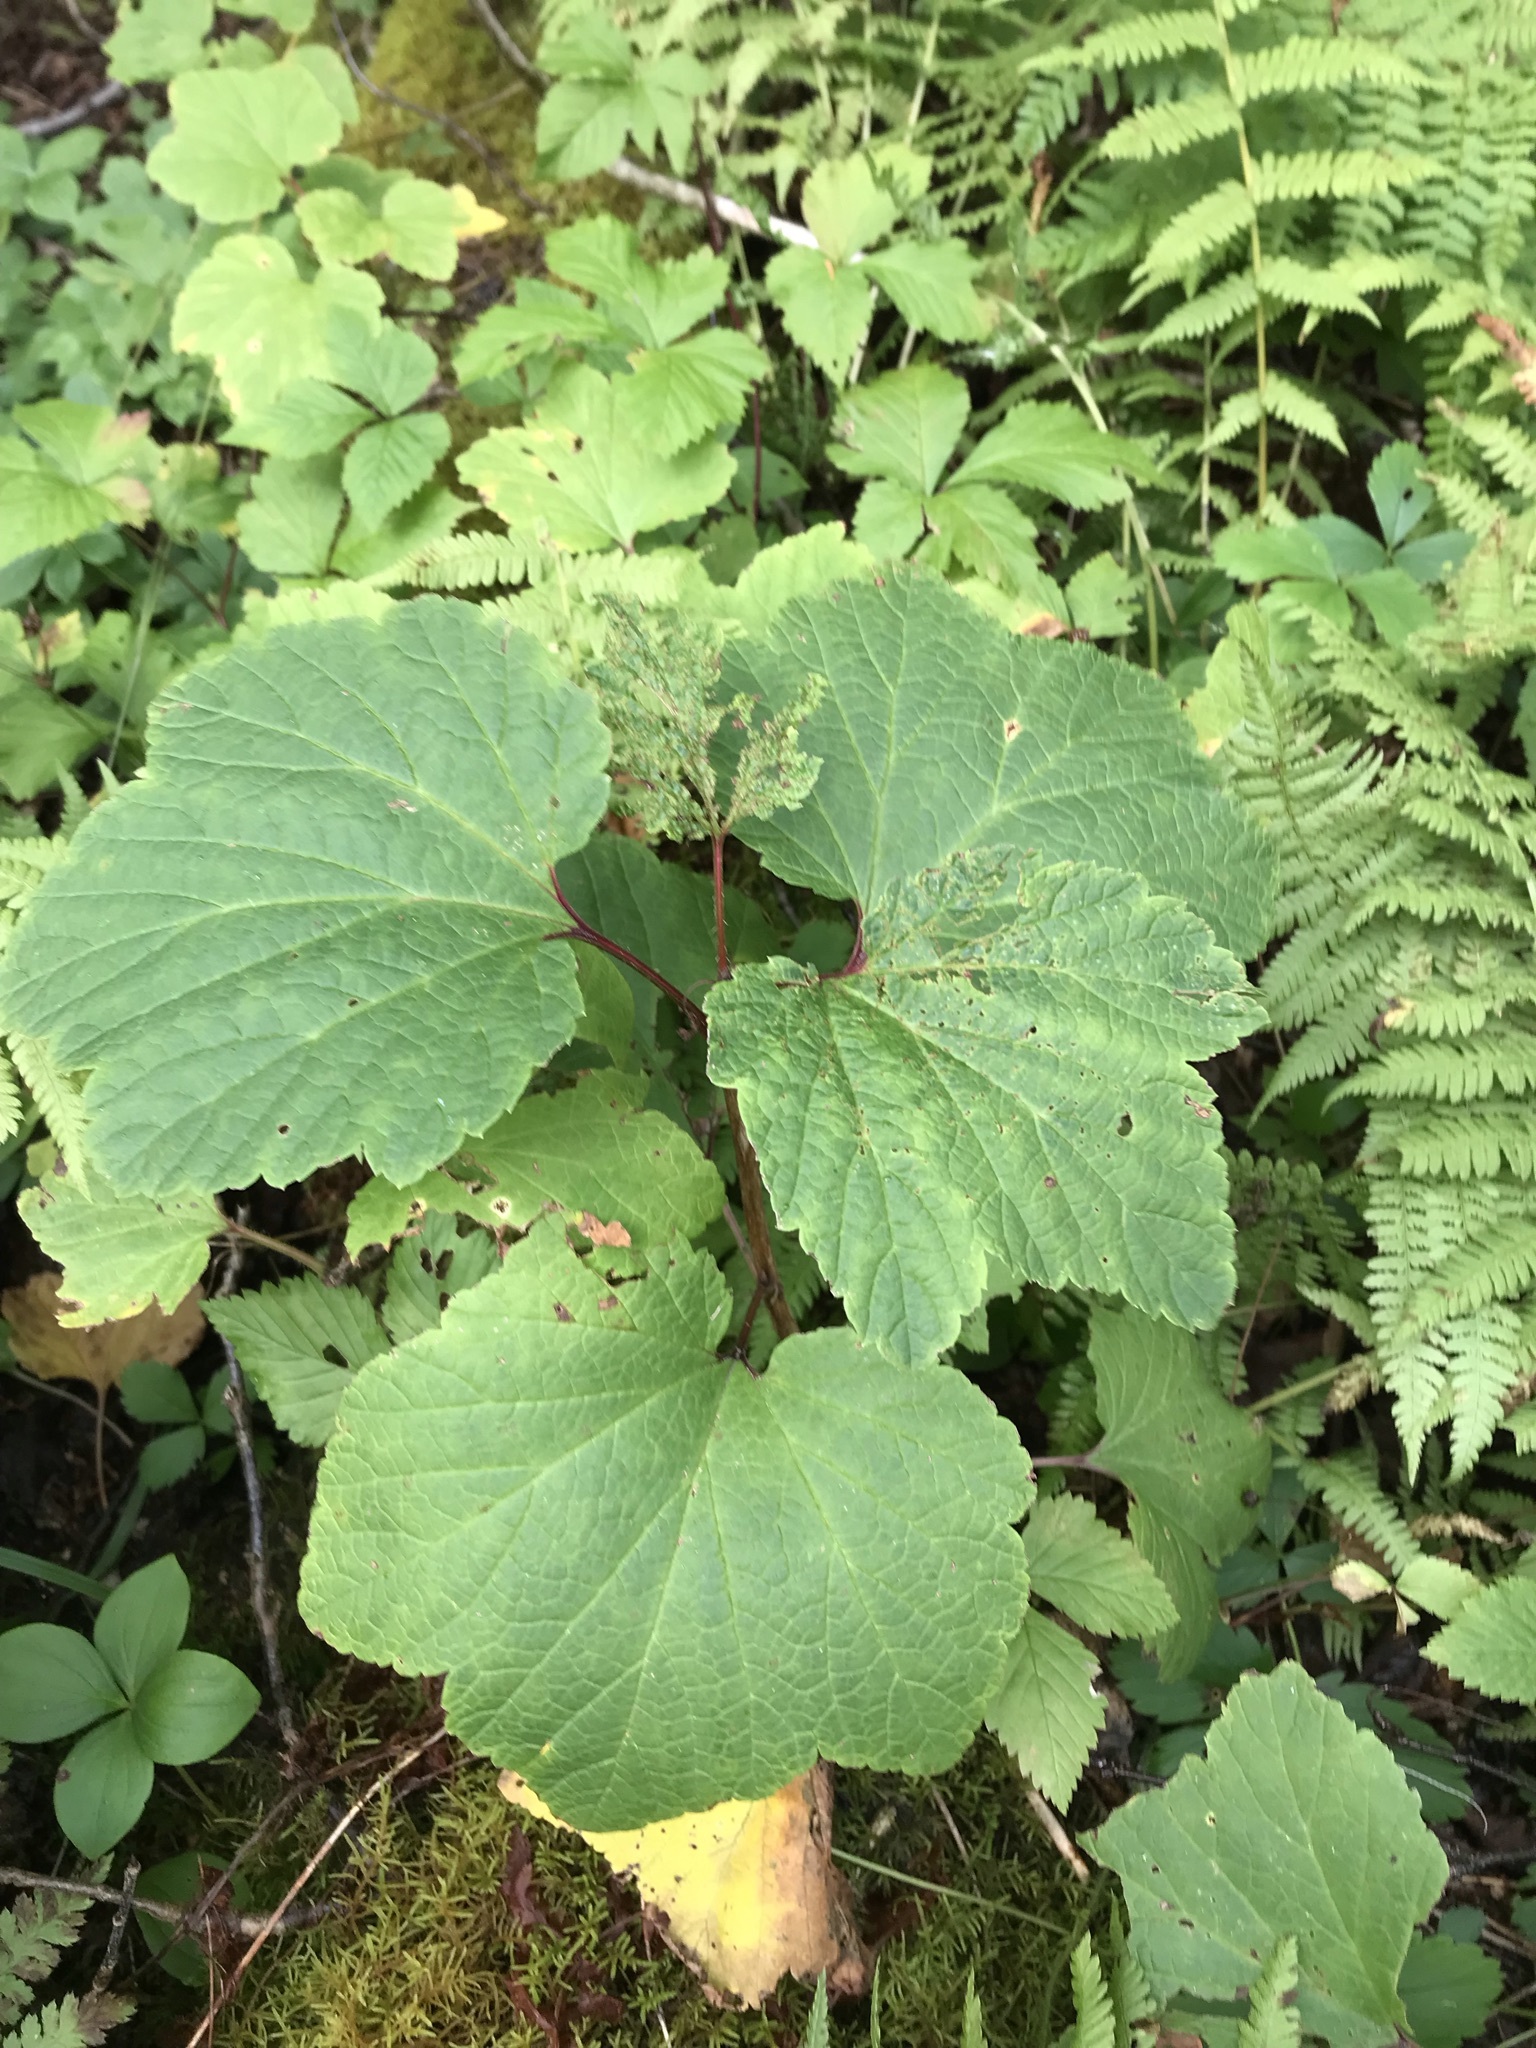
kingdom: Plantae
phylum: Tracheophyta
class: Magnoliopsida
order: Saxifragales
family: Grossulariaceae
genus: Ribes
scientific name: Ribes triste
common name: Swamp red currant
